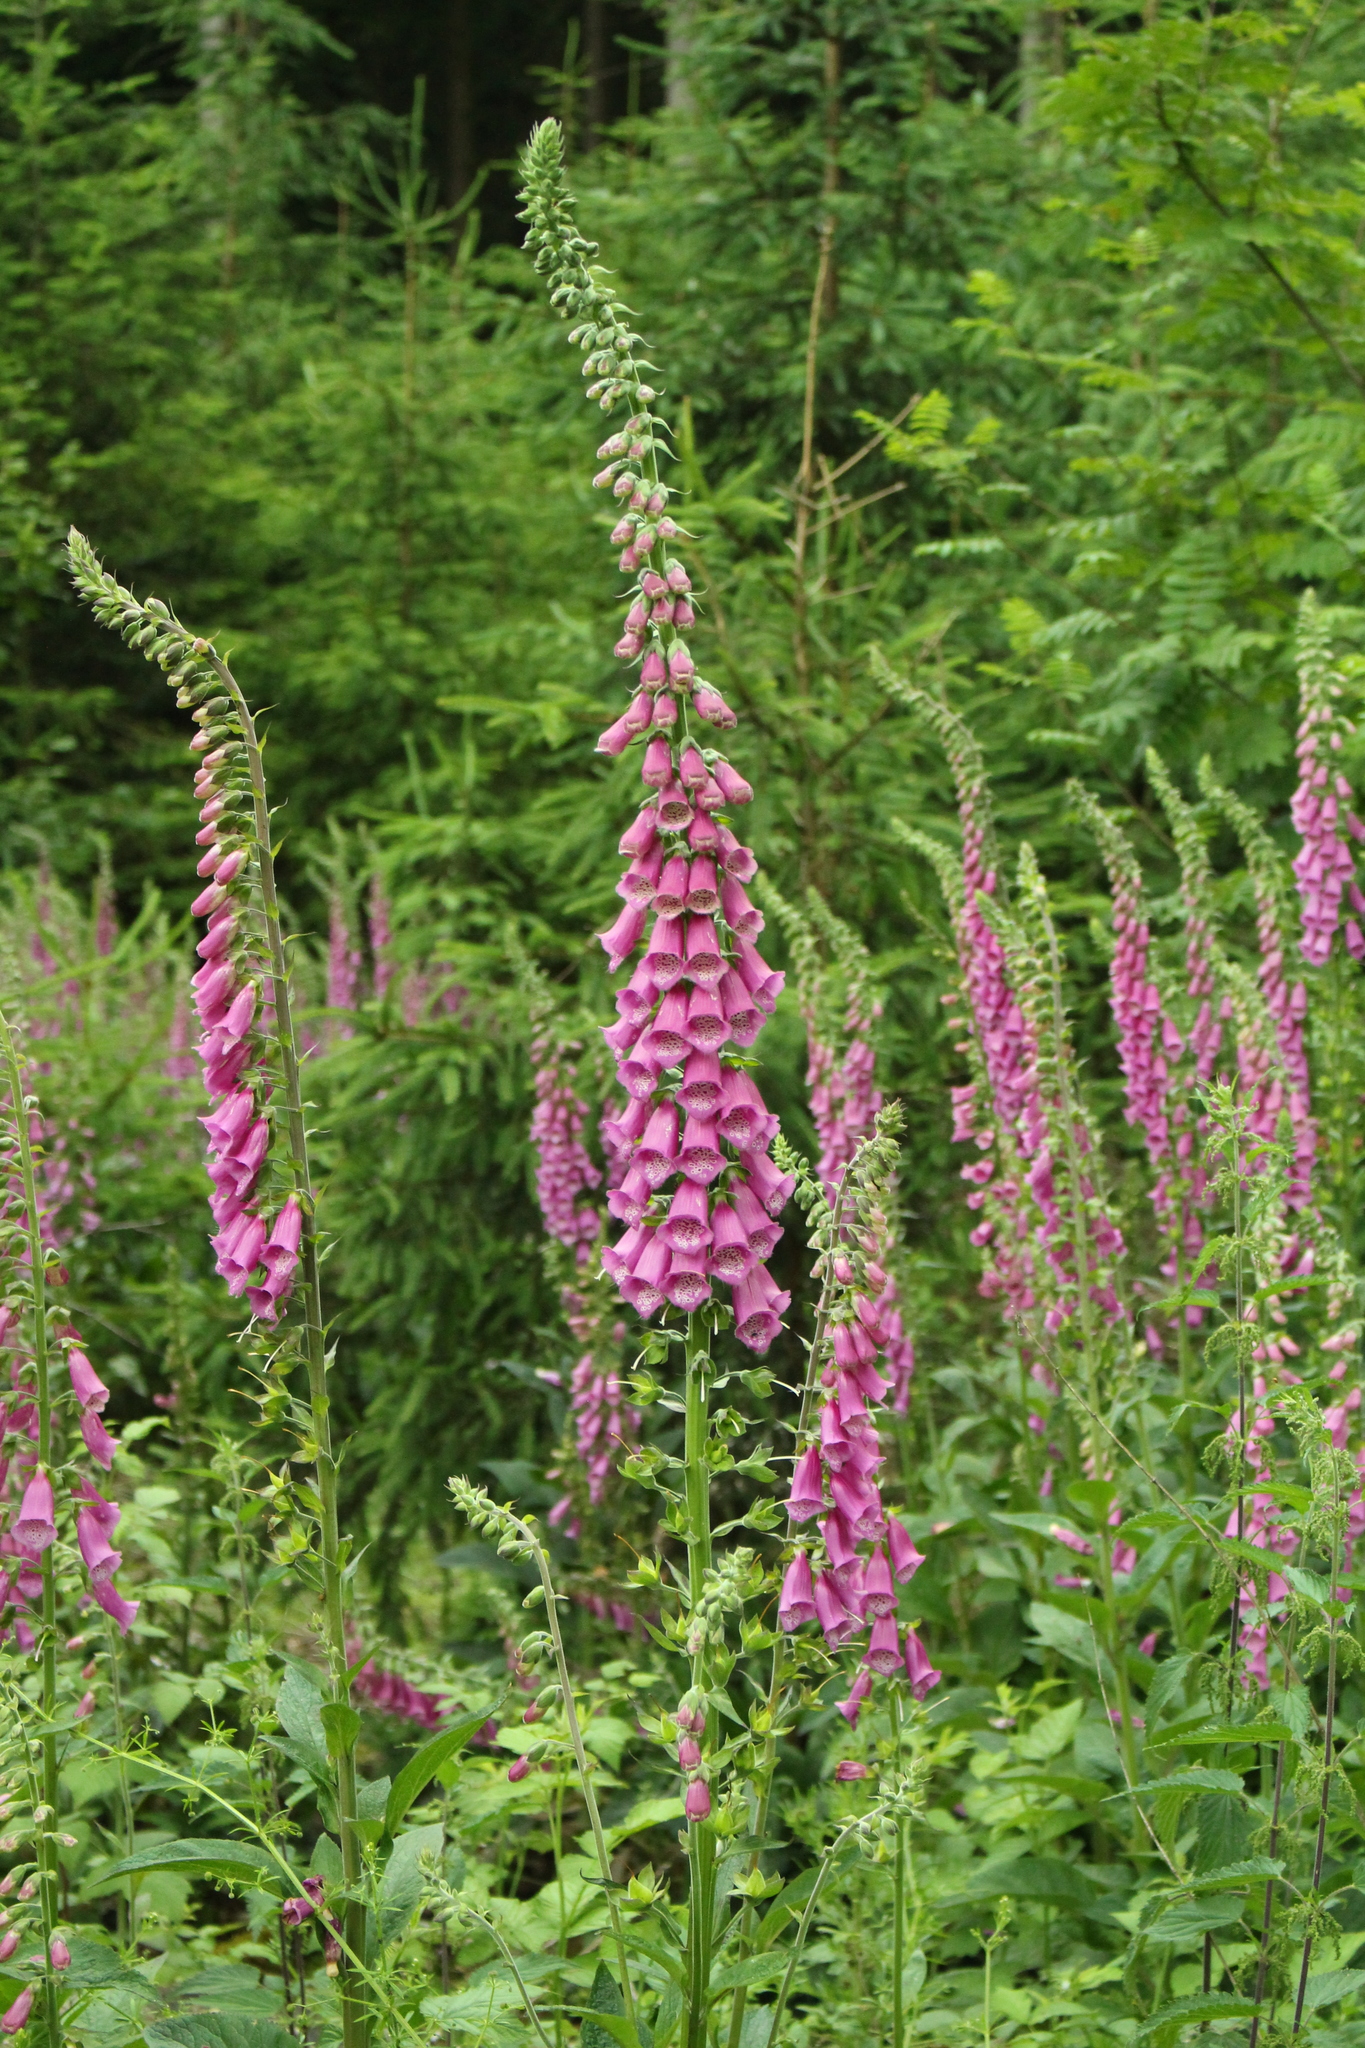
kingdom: Plantae
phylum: Tracheophyta
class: Magnoliopsida
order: Lamiales
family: Plantaginaceae
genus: Digitalis
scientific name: Digitalis purpurea
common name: Foxglove
